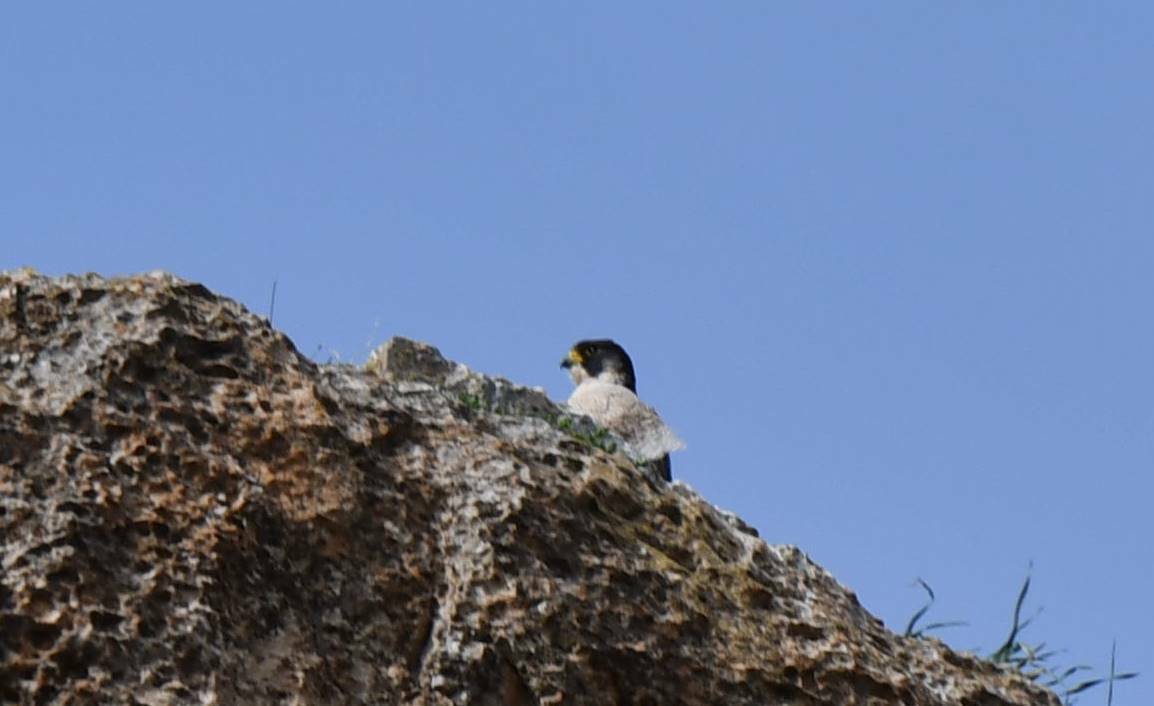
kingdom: Animalia
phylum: Chordata
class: Aves
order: Falconiformes
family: Falconidae
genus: Falco
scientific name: Falco peregrinus
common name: Peregrine falcon
